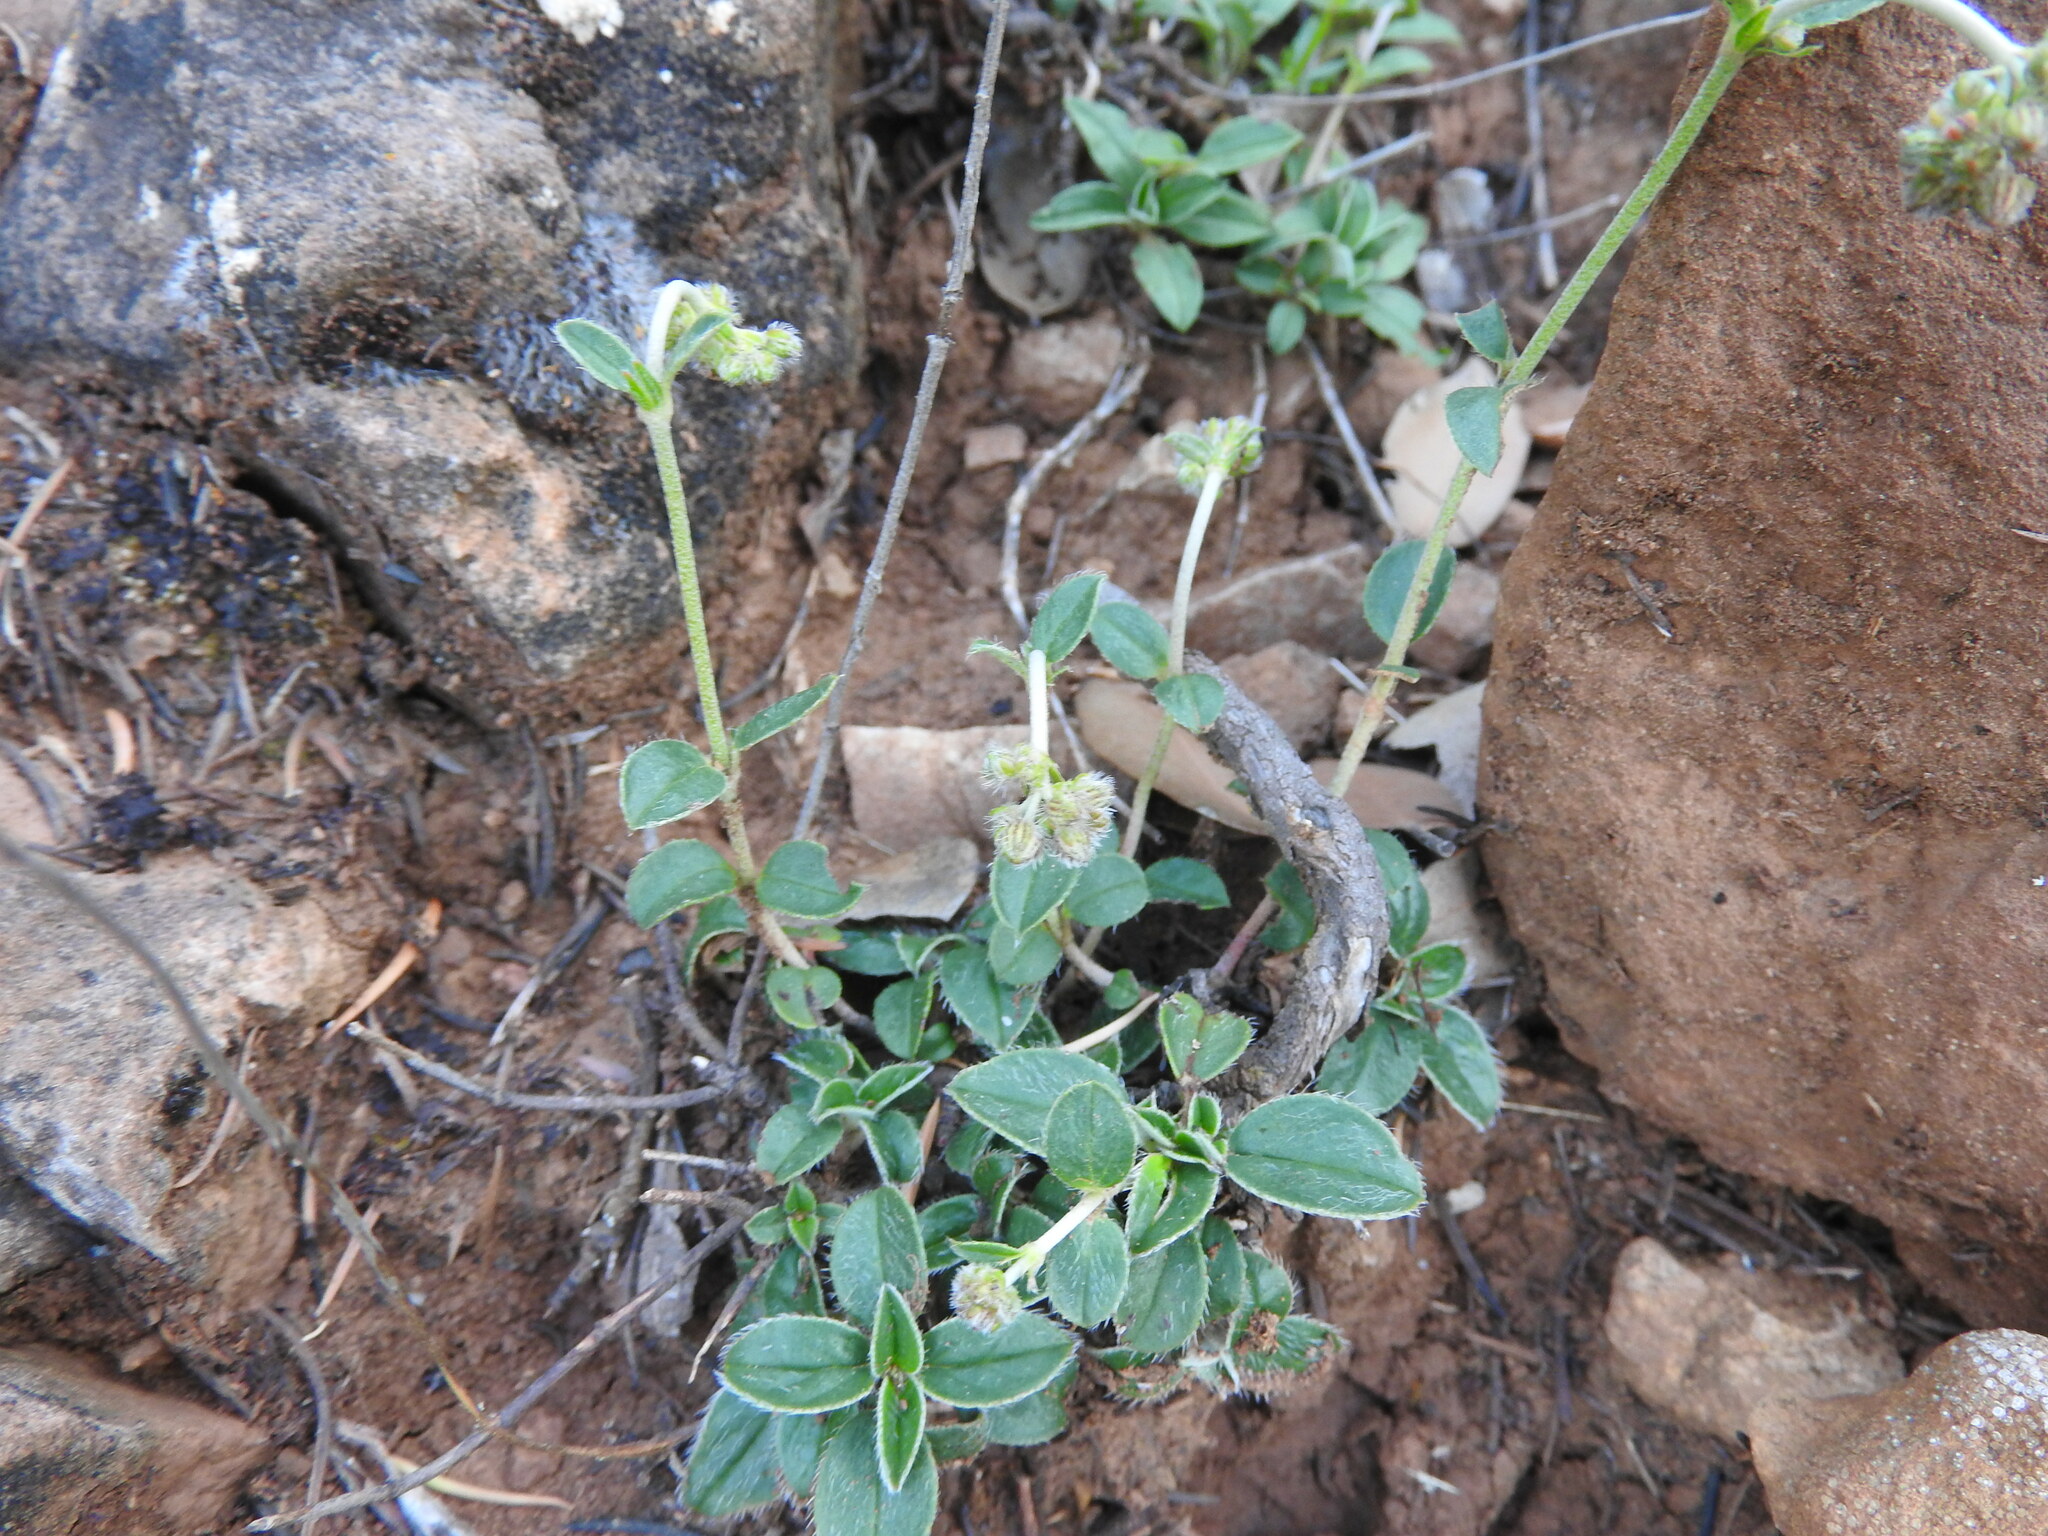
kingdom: Plantae
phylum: Tracheophyta
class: Magnoliopsida
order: Malvales
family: Cistaceae
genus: Helianthemum
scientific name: Helianthemum cinereum
